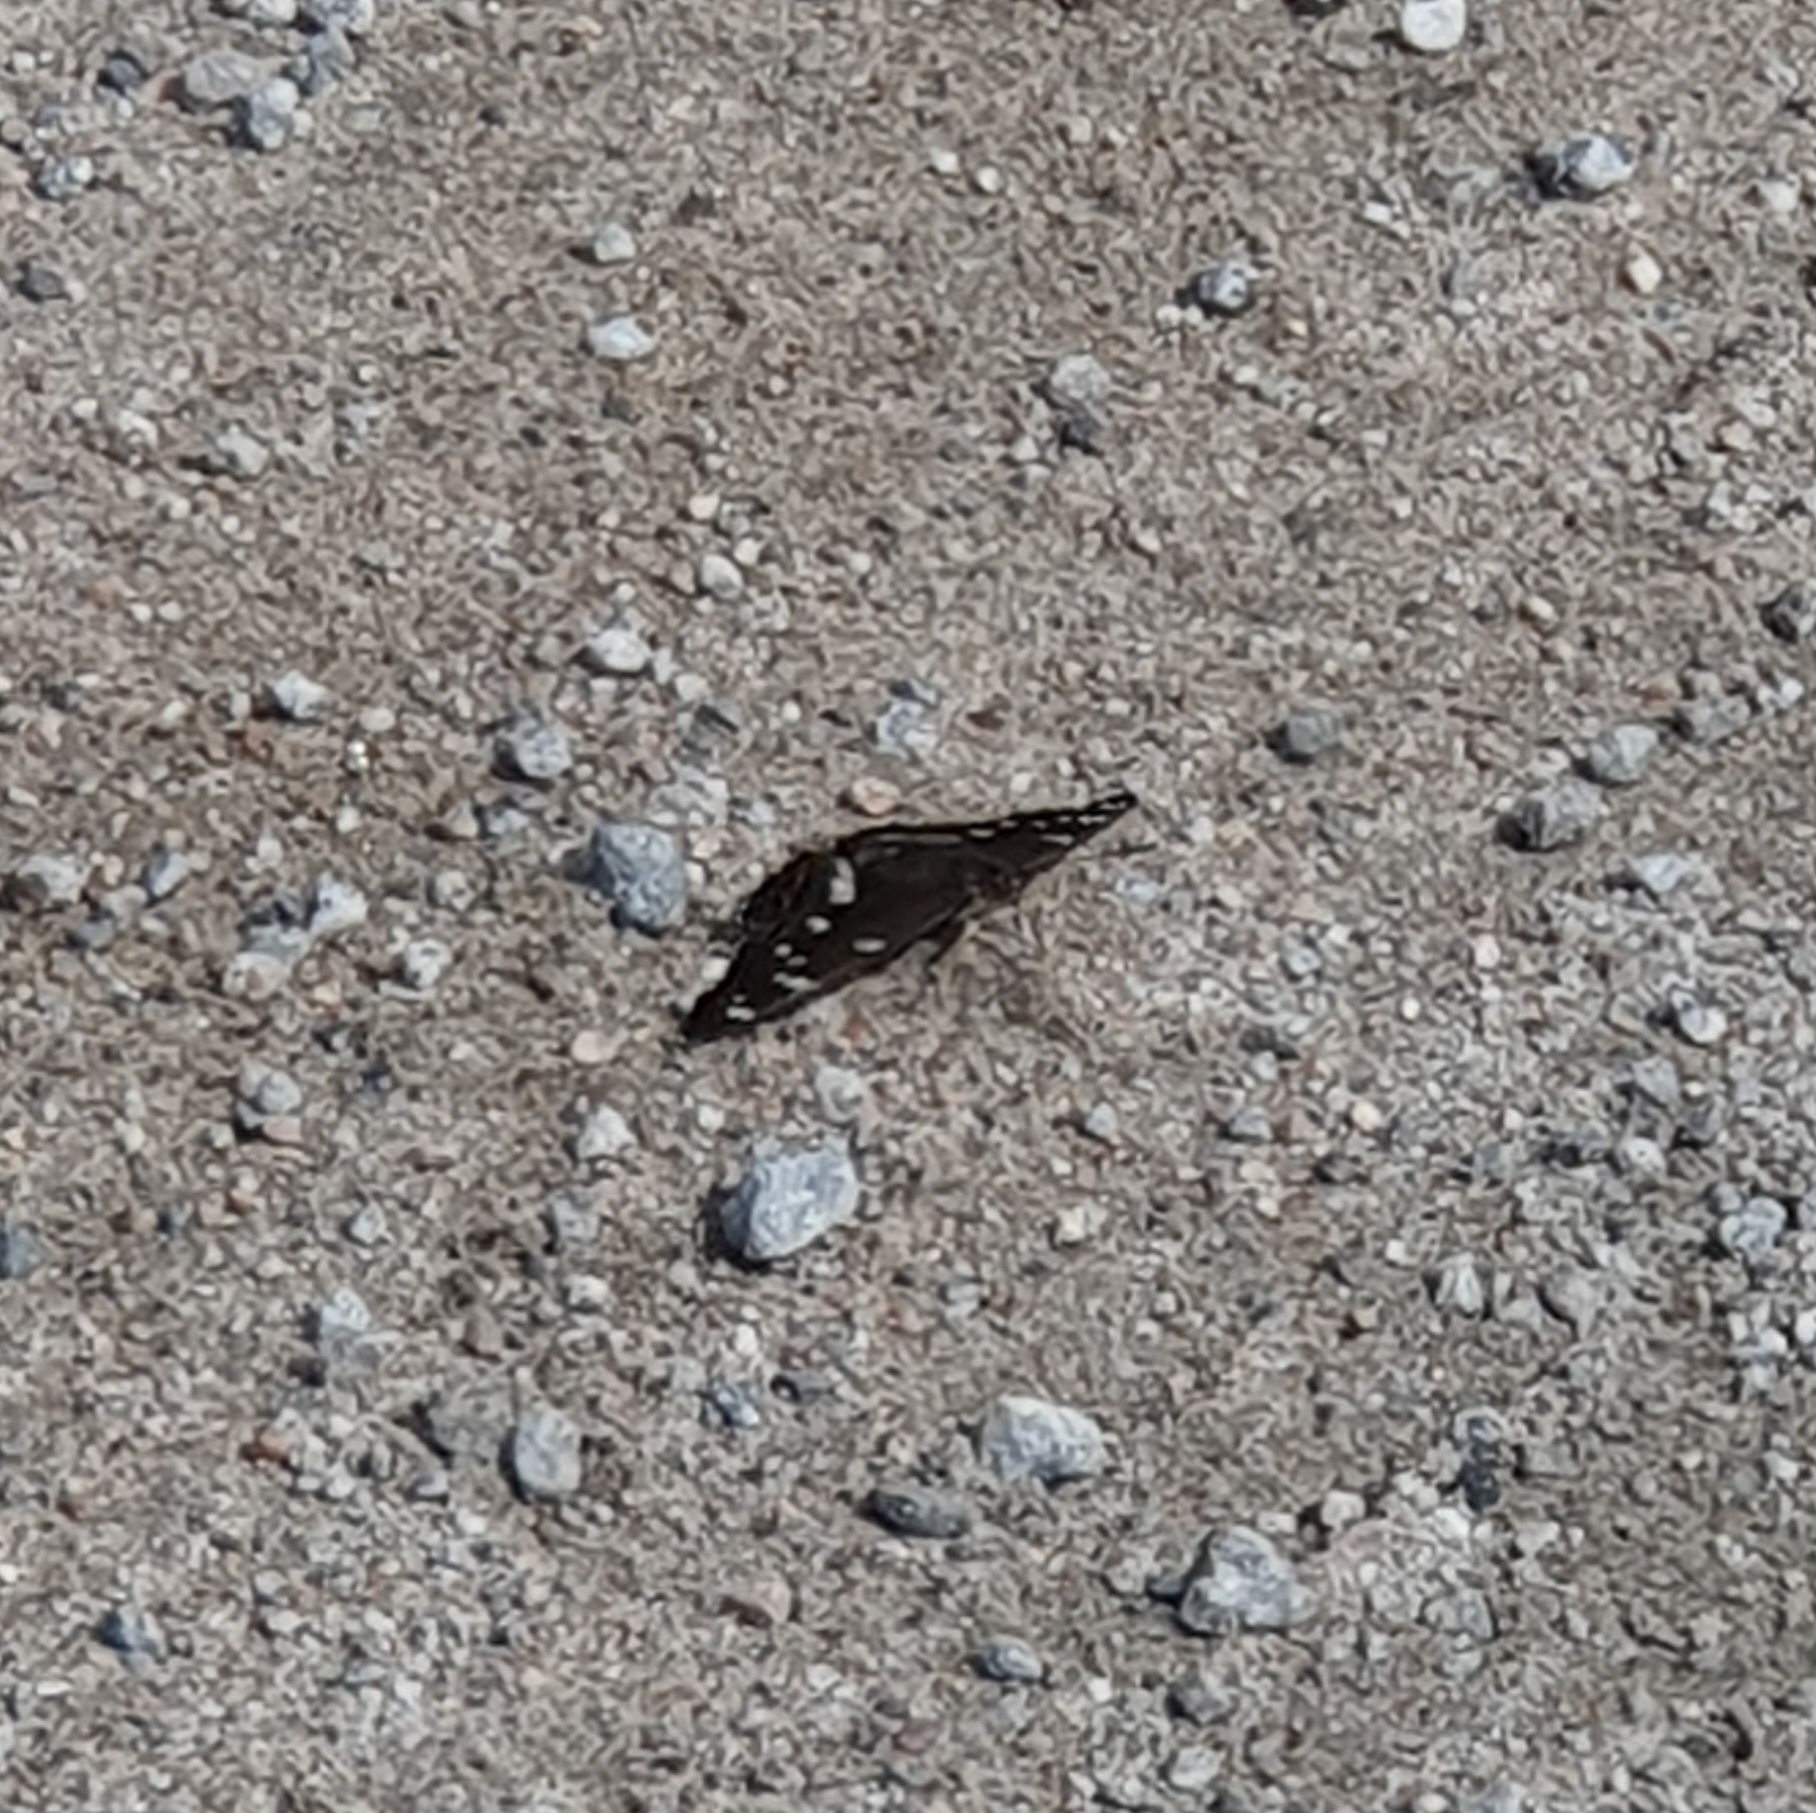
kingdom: Animalia
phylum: Arthropoda
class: Insecta
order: Lepidoptera
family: Nymphalidae
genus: Limenitis
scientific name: Limenitis populi
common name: Poplar admiral
